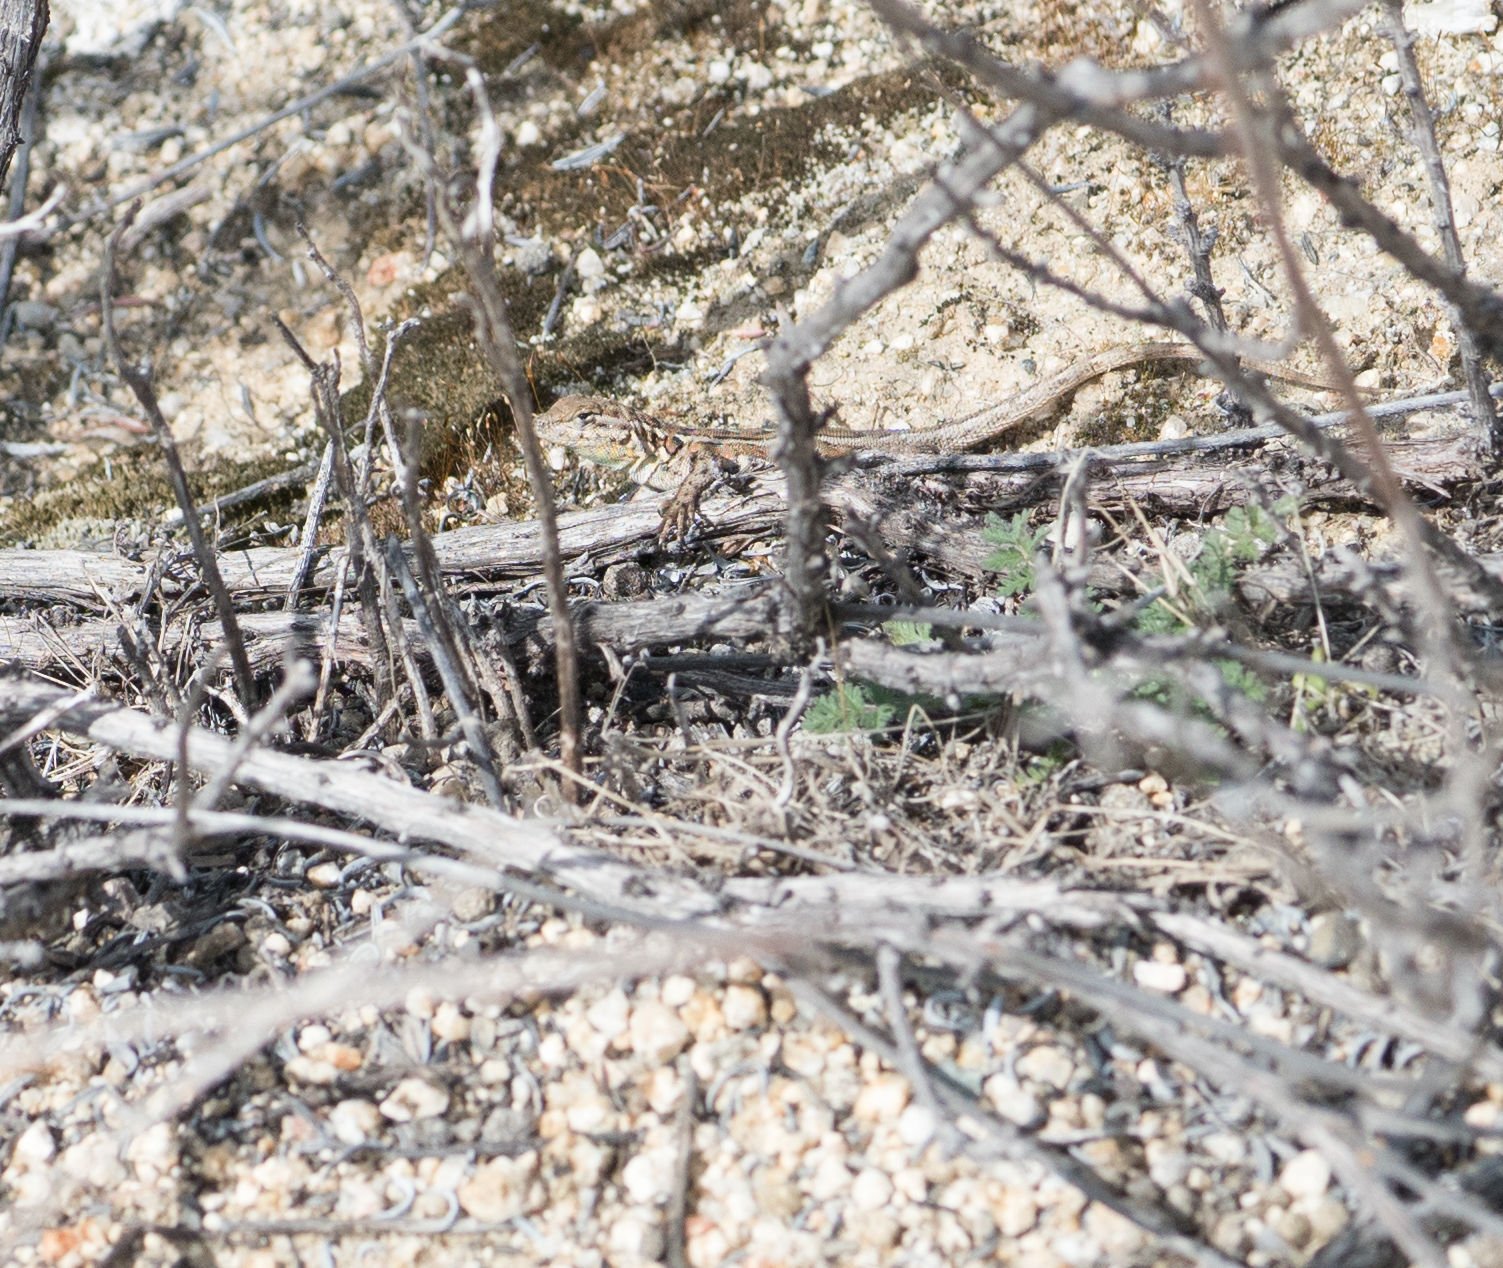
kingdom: Animalia
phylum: Chordata
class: Squamata
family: Phrynosomatidae
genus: Uta
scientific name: Uta stansburiana
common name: Side-blotched lizard
